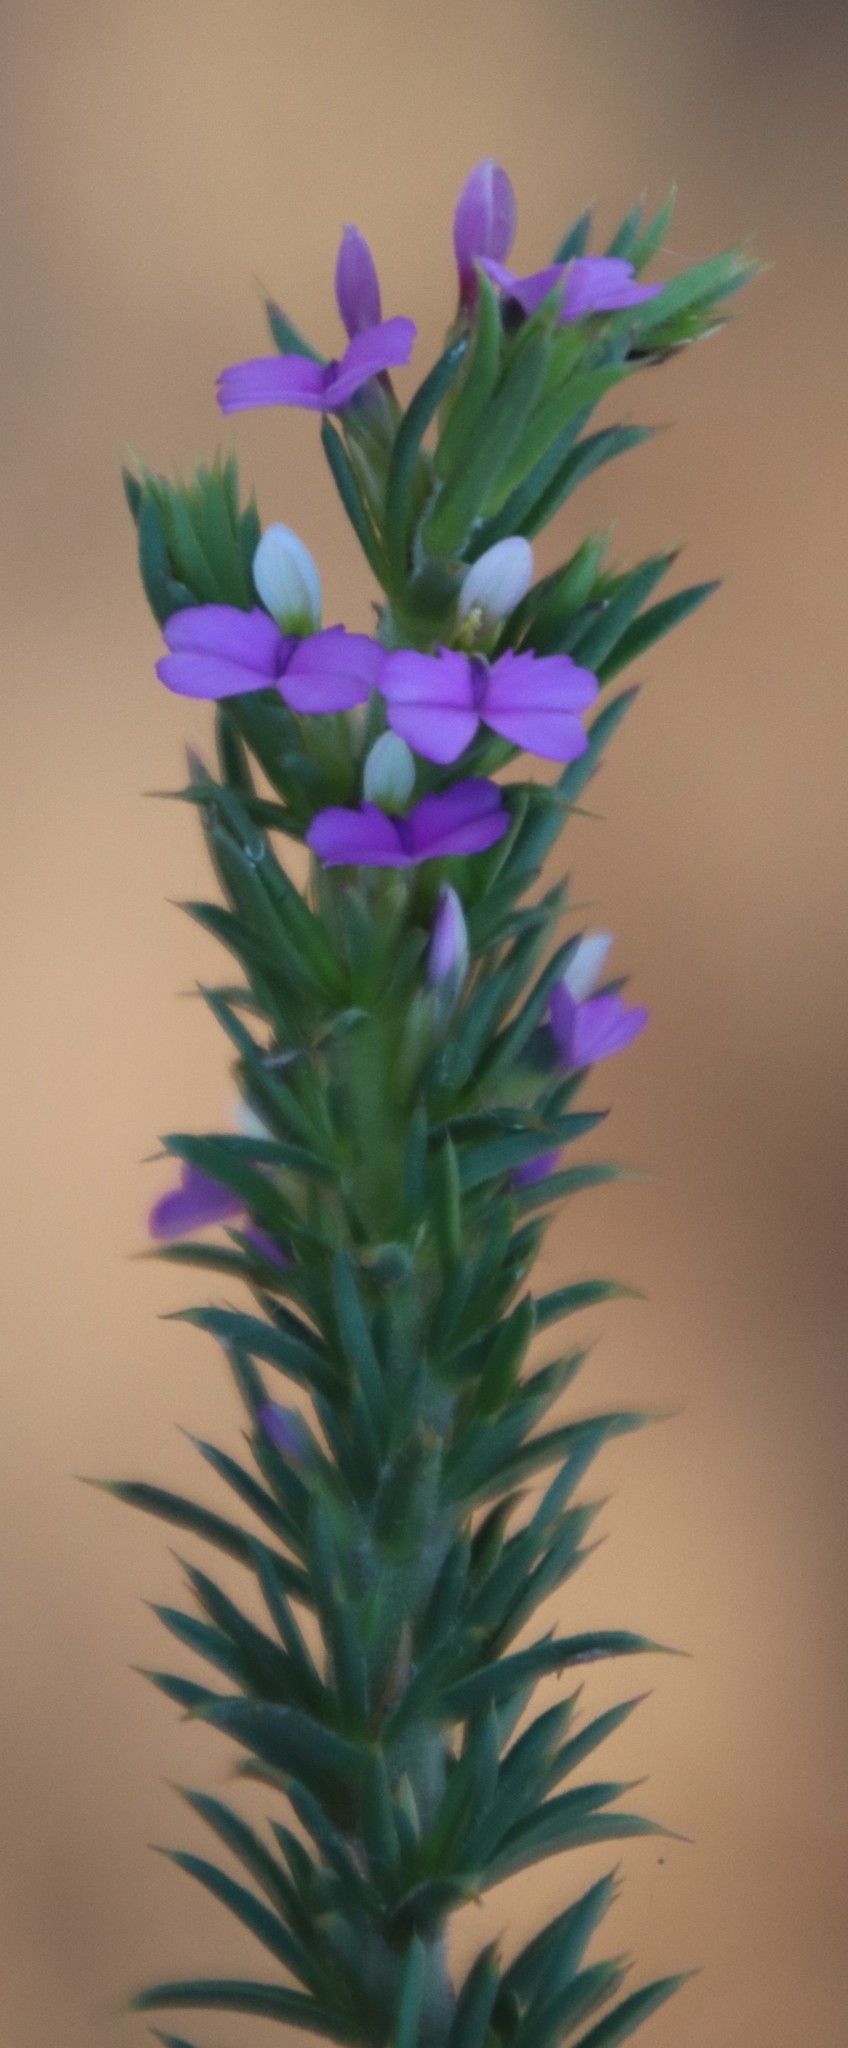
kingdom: Plantae
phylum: Tracheophyta
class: Magnoliopsida
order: Fabales
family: Polygalaceae
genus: Muraltia
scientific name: Muraltia heisteria
